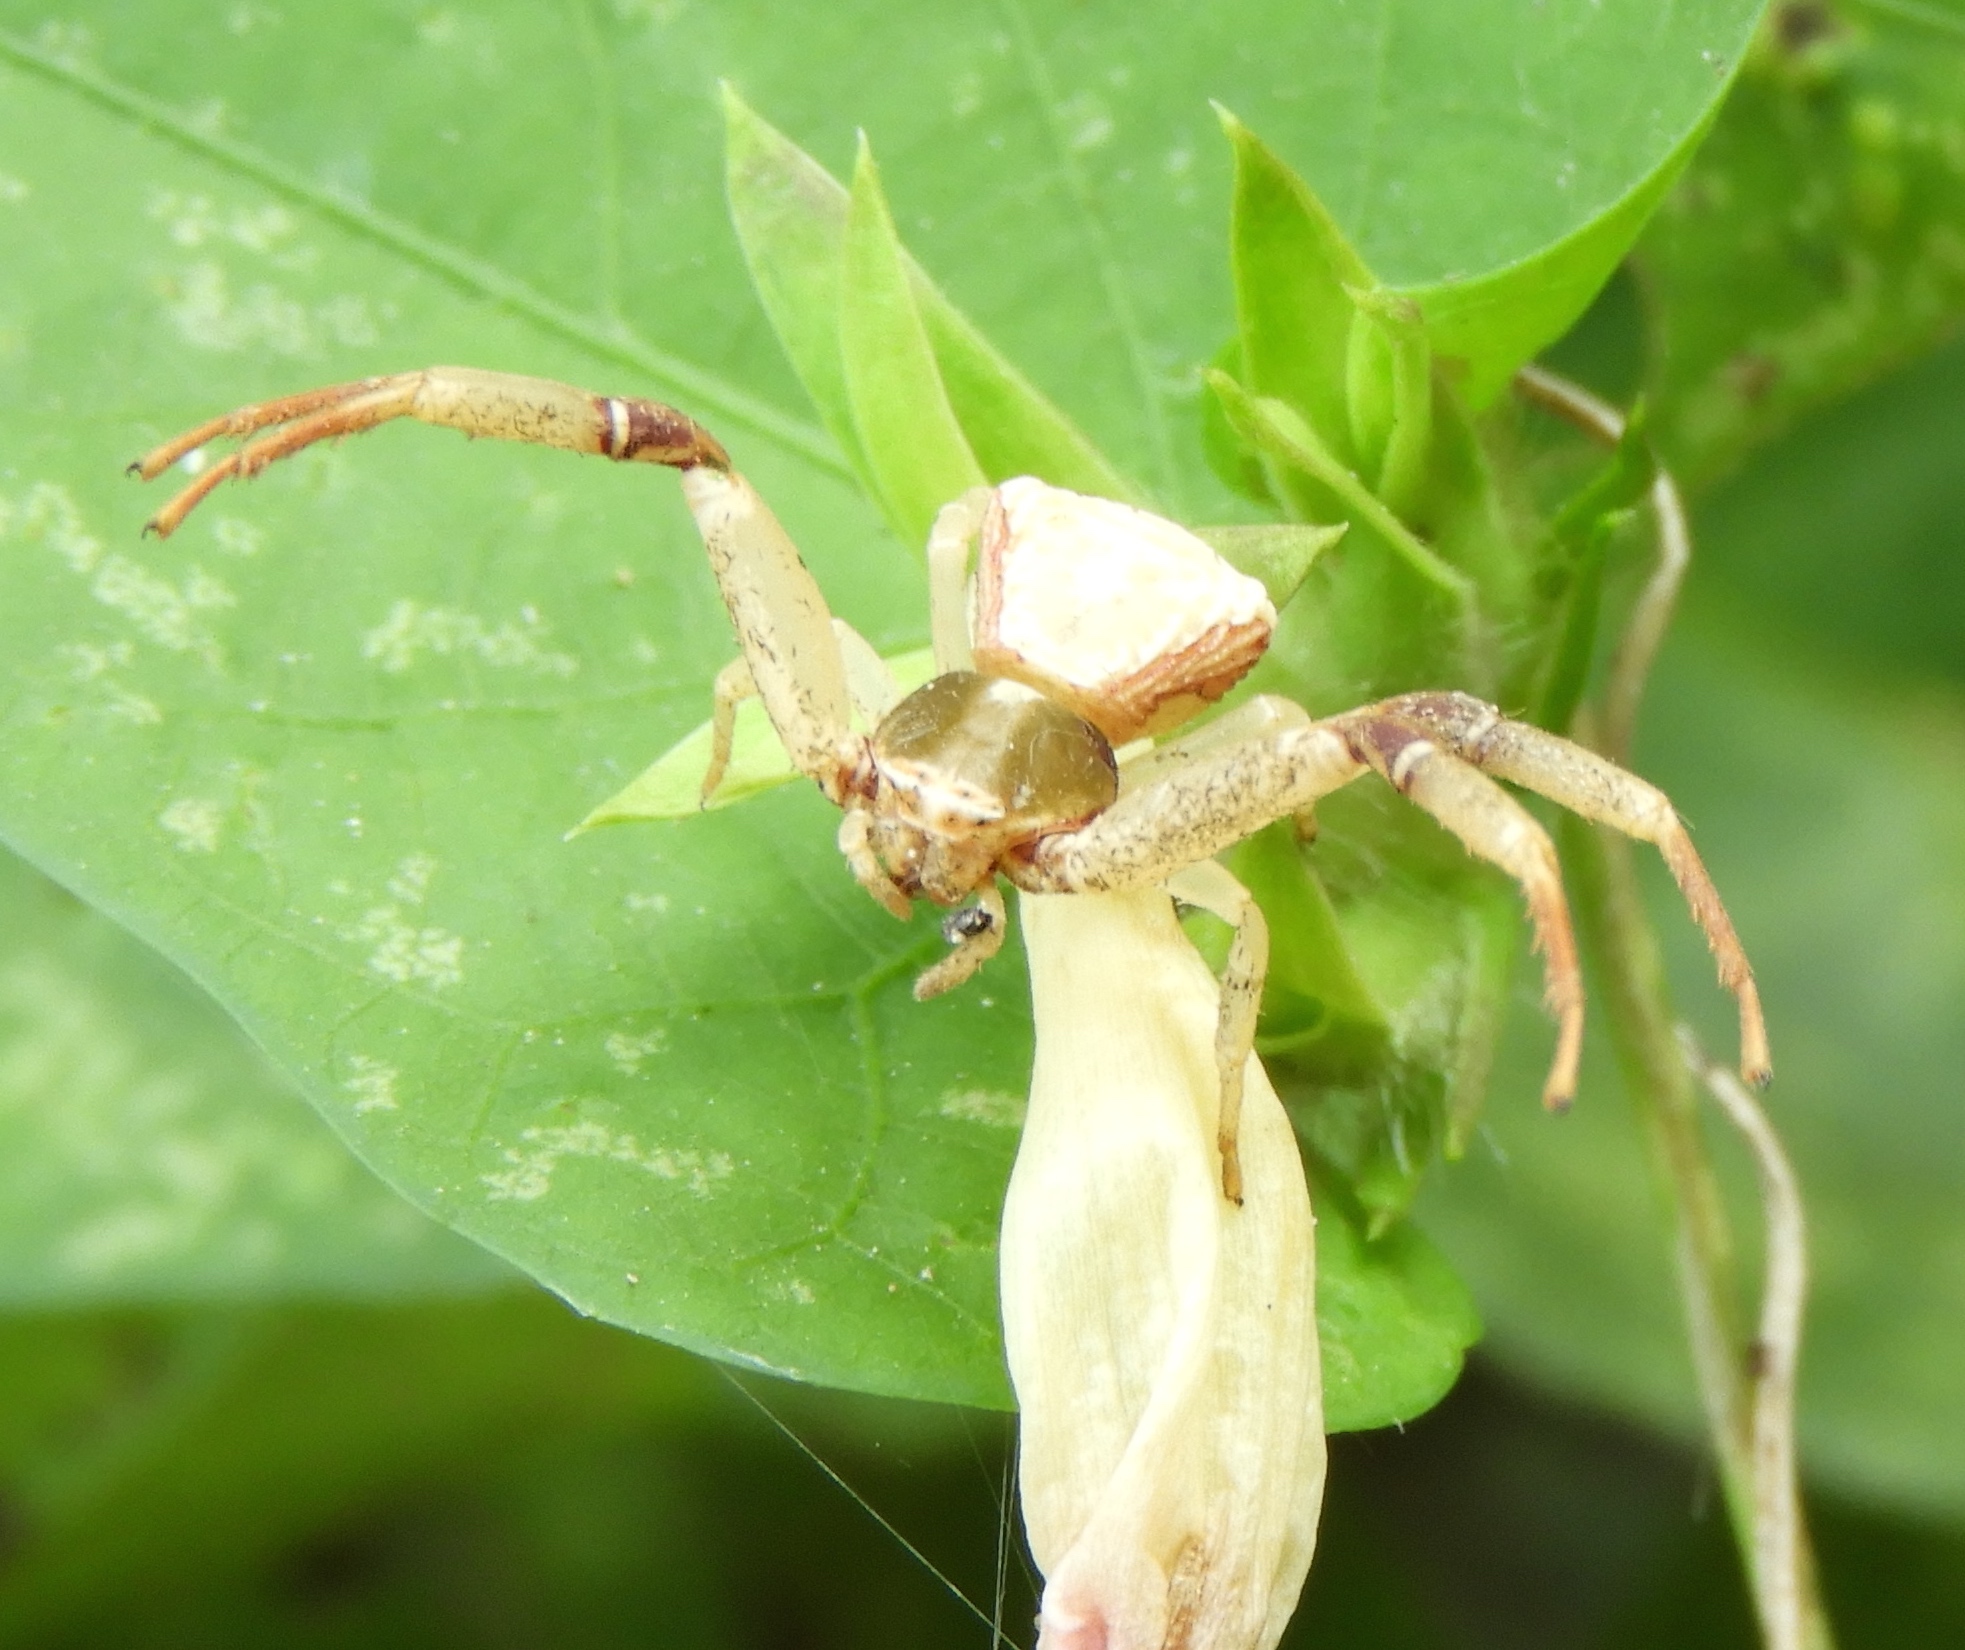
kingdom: Animalia
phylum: Arthropoda
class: Arachnida
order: Araneae
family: Thomisidae
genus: Misumenoides
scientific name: Misumenoides
